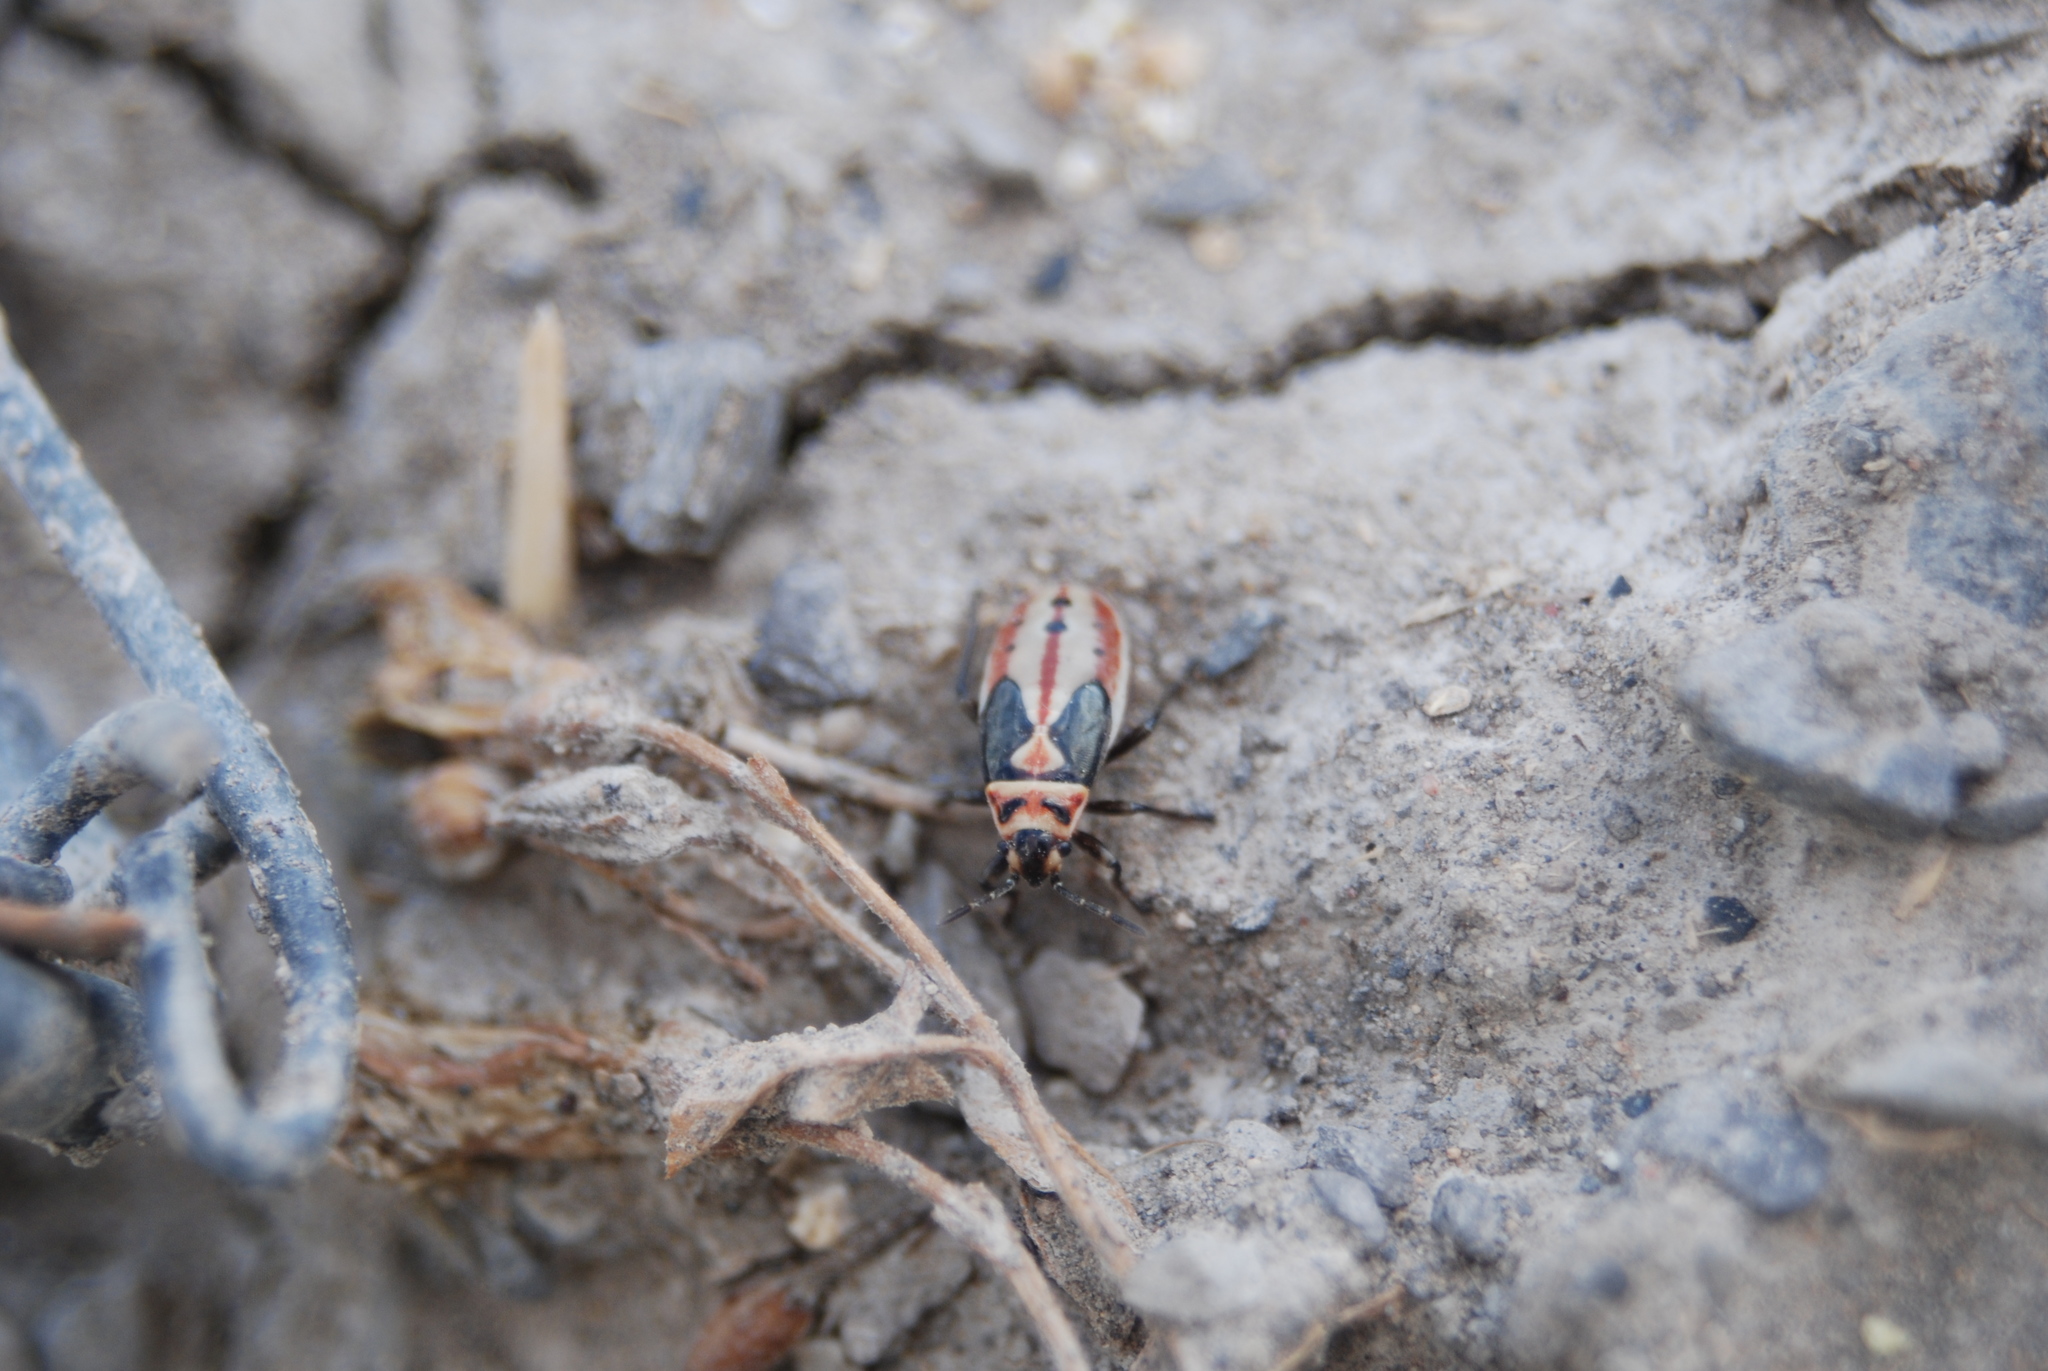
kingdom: Animalia
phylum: Arthropoda
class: Insecta
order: Hemiptera
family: Lygaeidae
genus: Lygaeus
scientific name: Lygaeus kalmii
